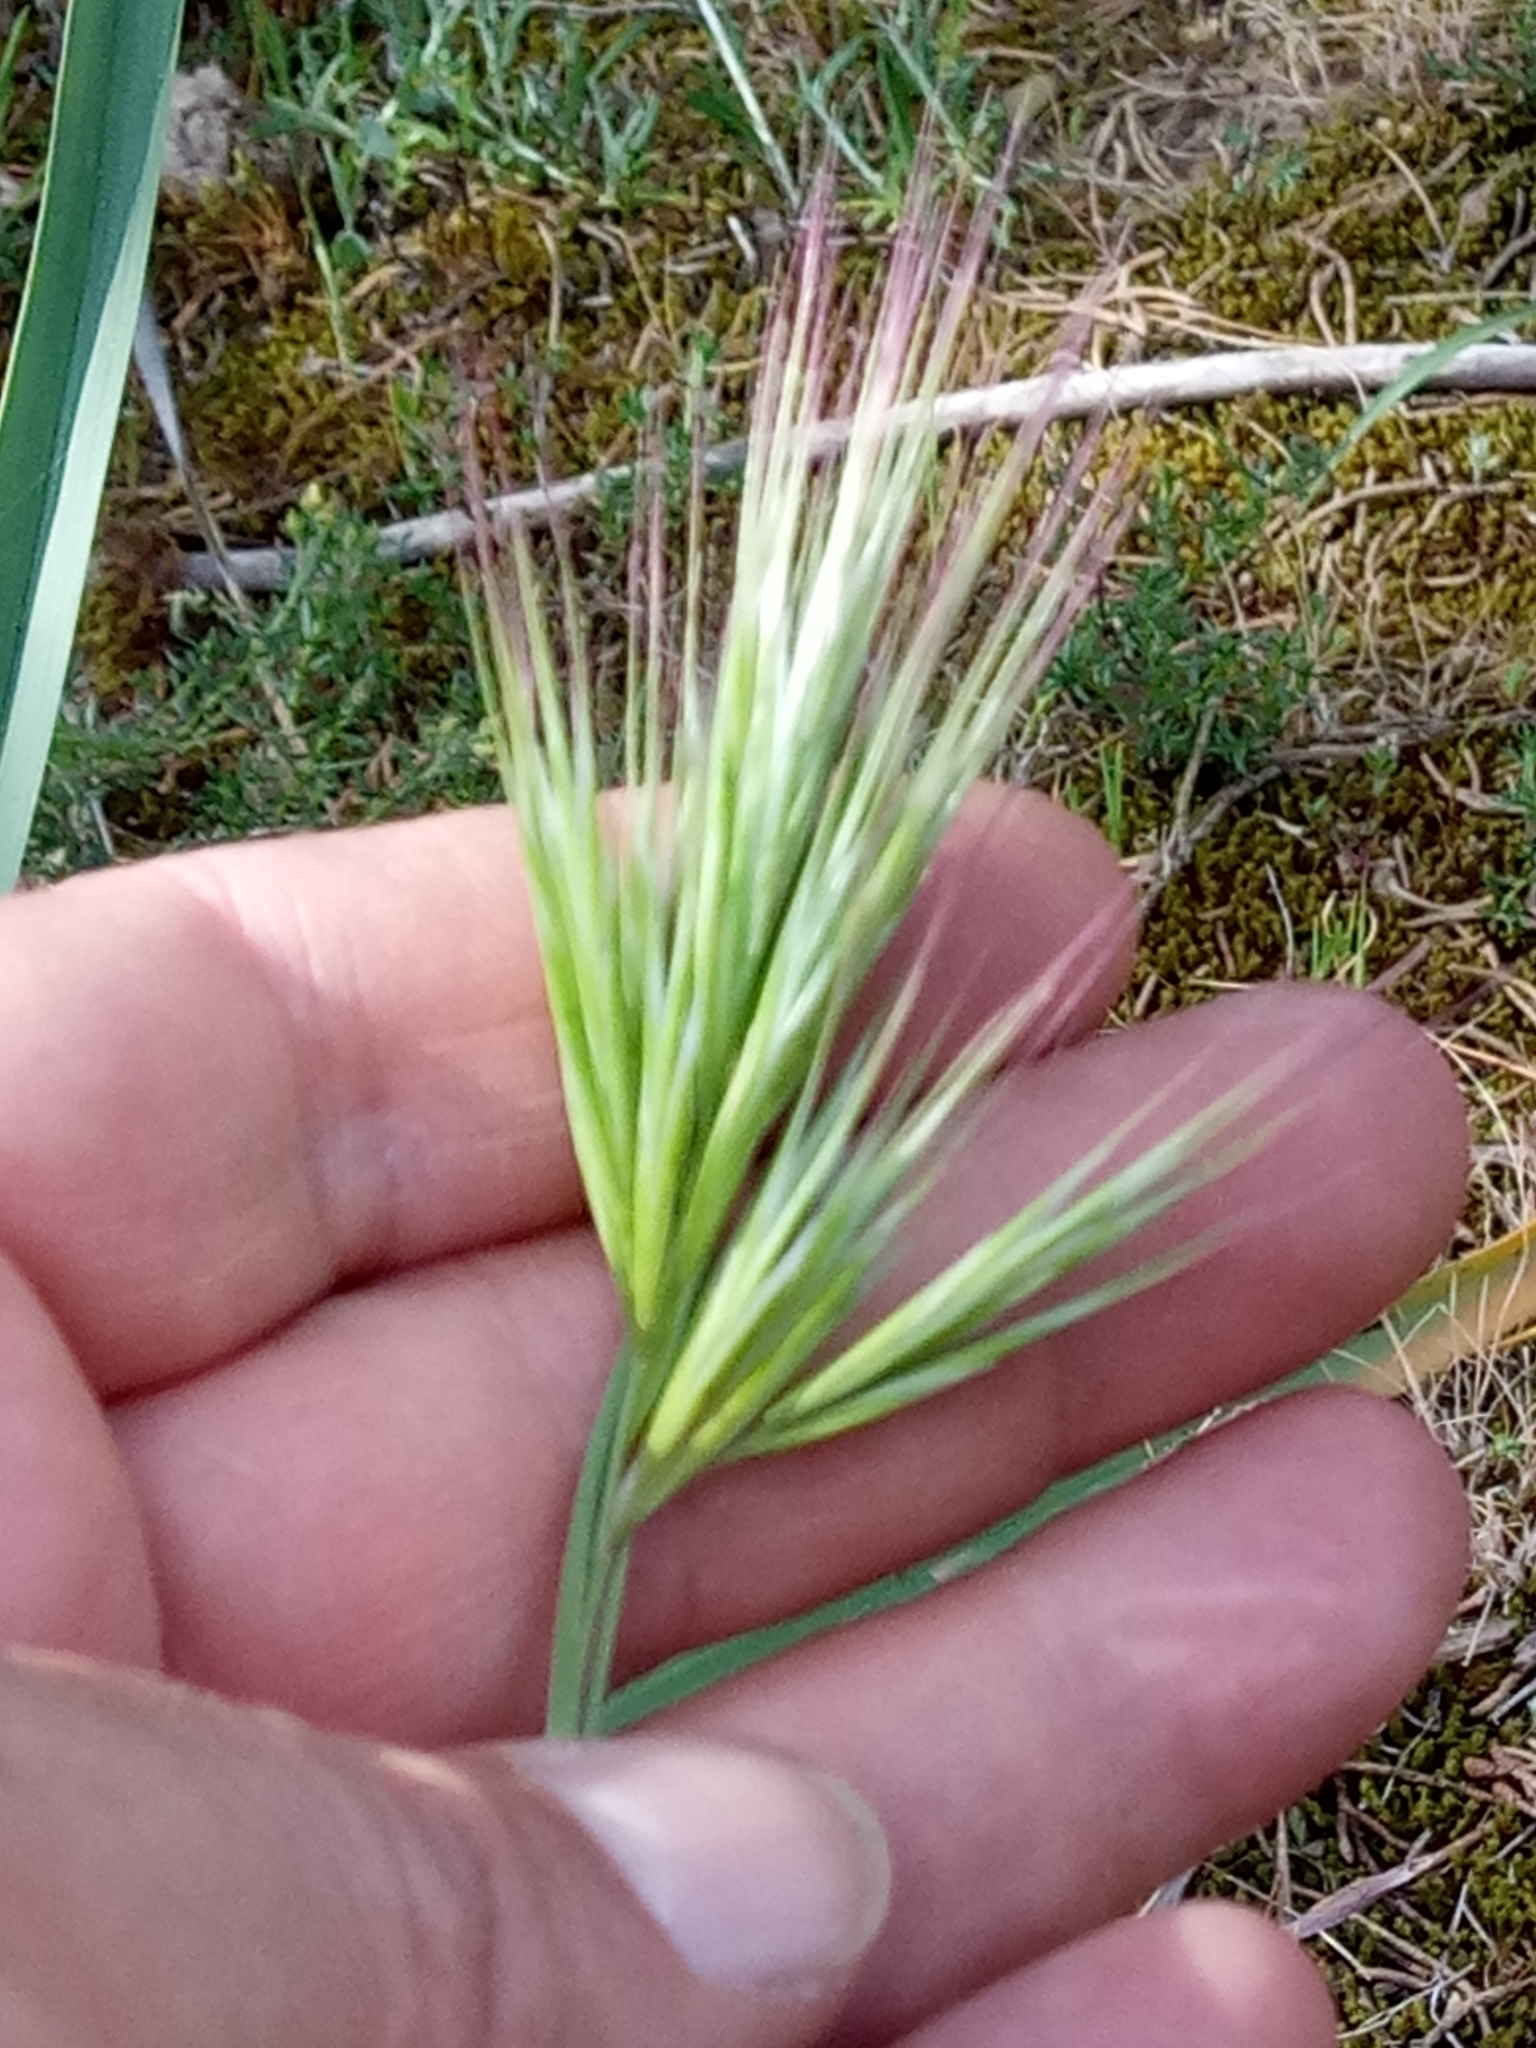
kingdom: Plantae
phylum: Tracheophyta
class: Liliopsida
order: Poales
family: Poaceae
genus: Bromus
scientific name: Bromus rubens
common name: Red brome
